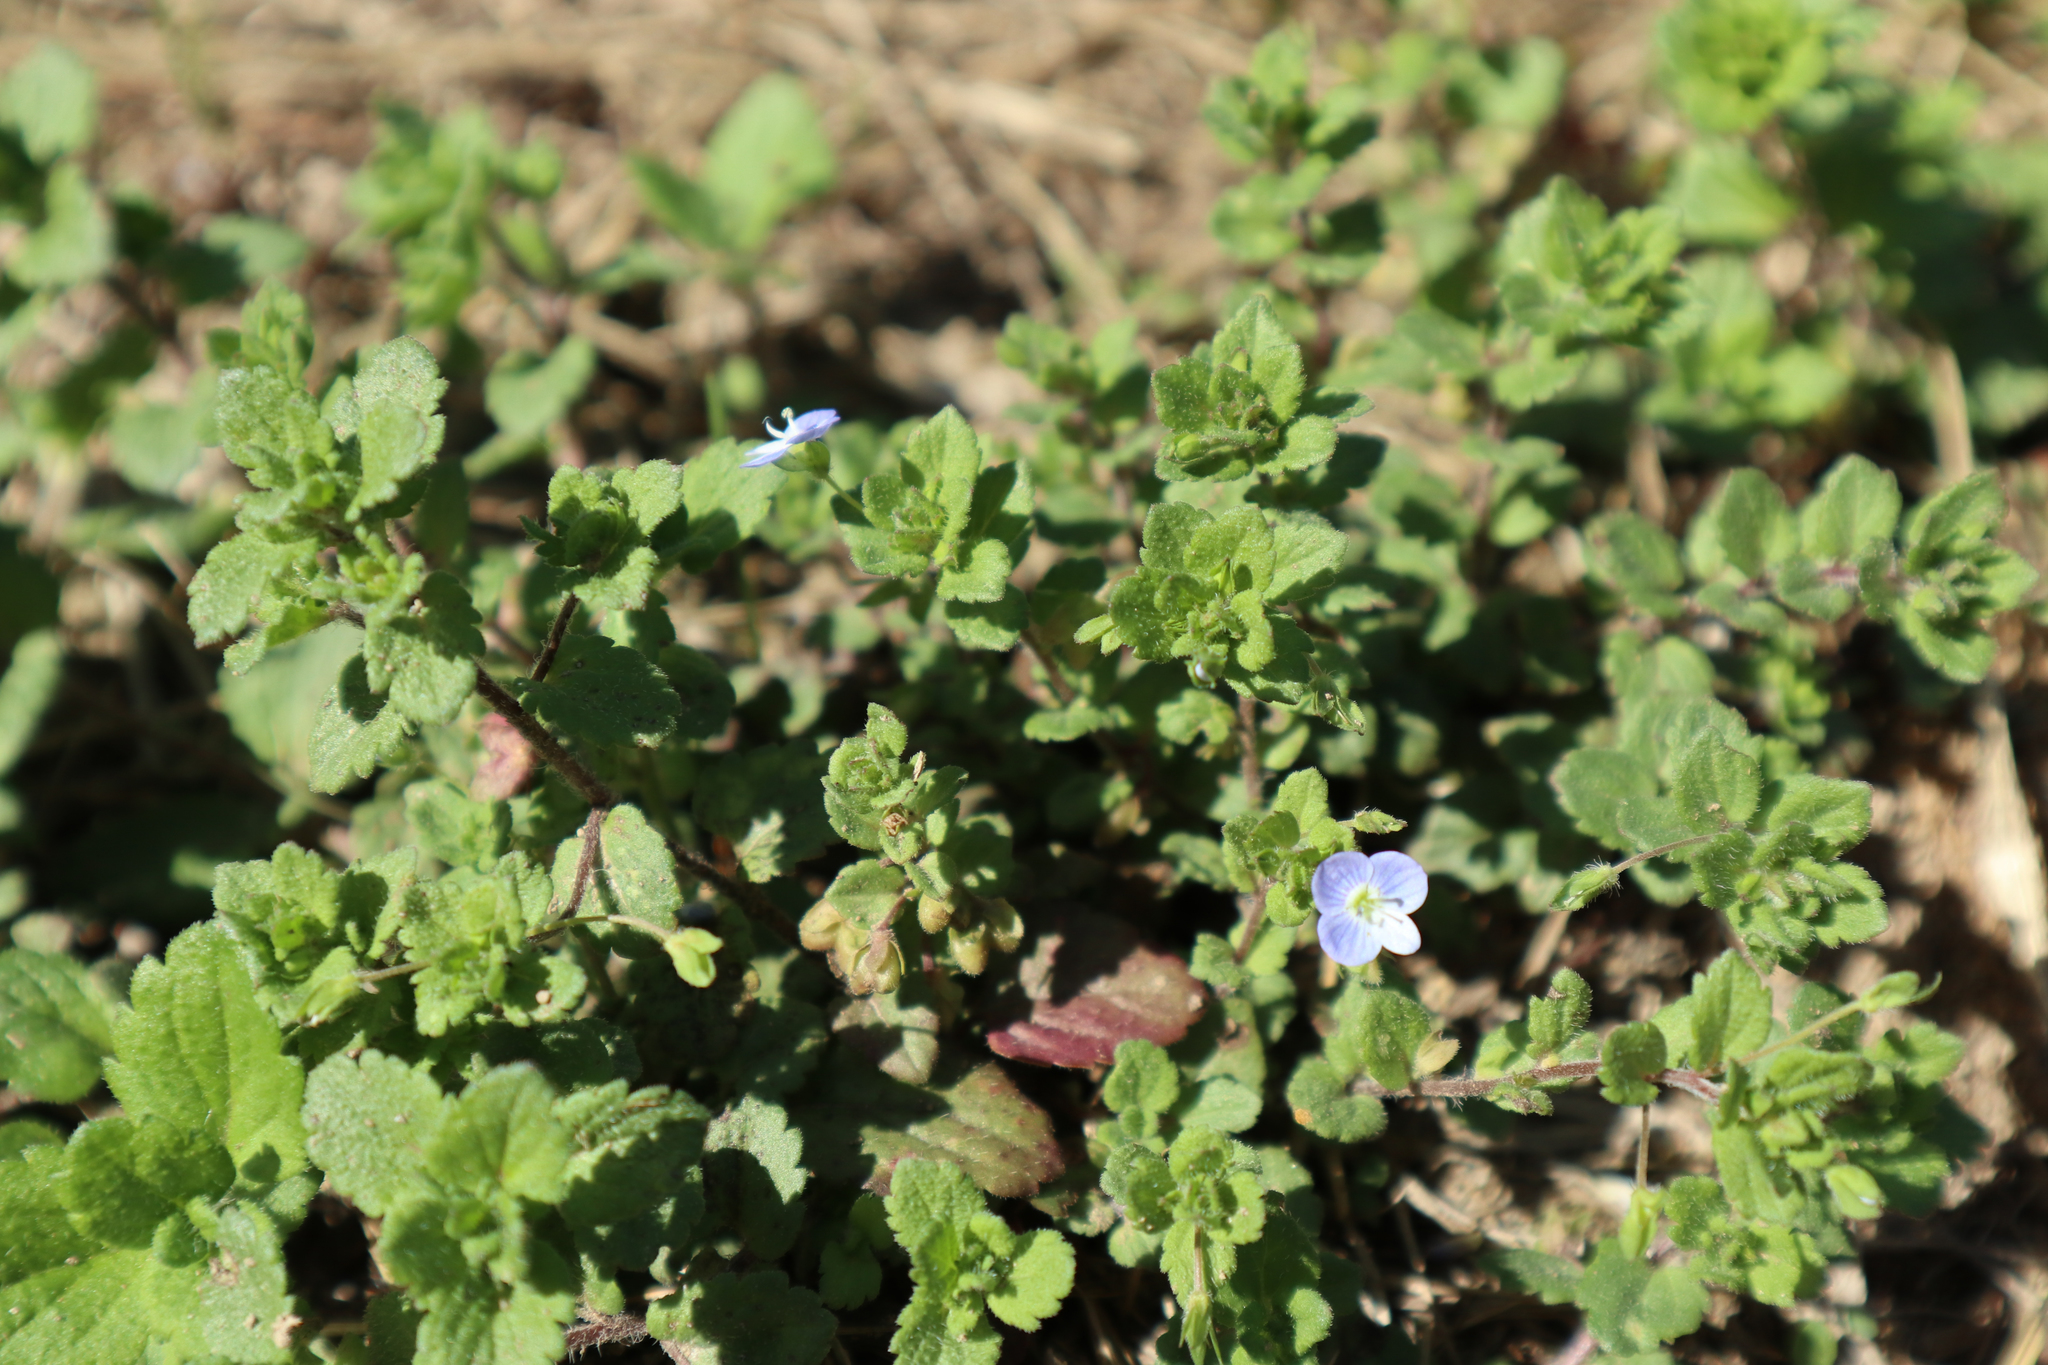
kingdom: Plantae
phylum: Tracheophyta
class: Magnoliopsida
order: Lamiales
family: Plantaginaceae
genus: Veronica
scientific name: Veronica persica
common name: Common field-speedwell
